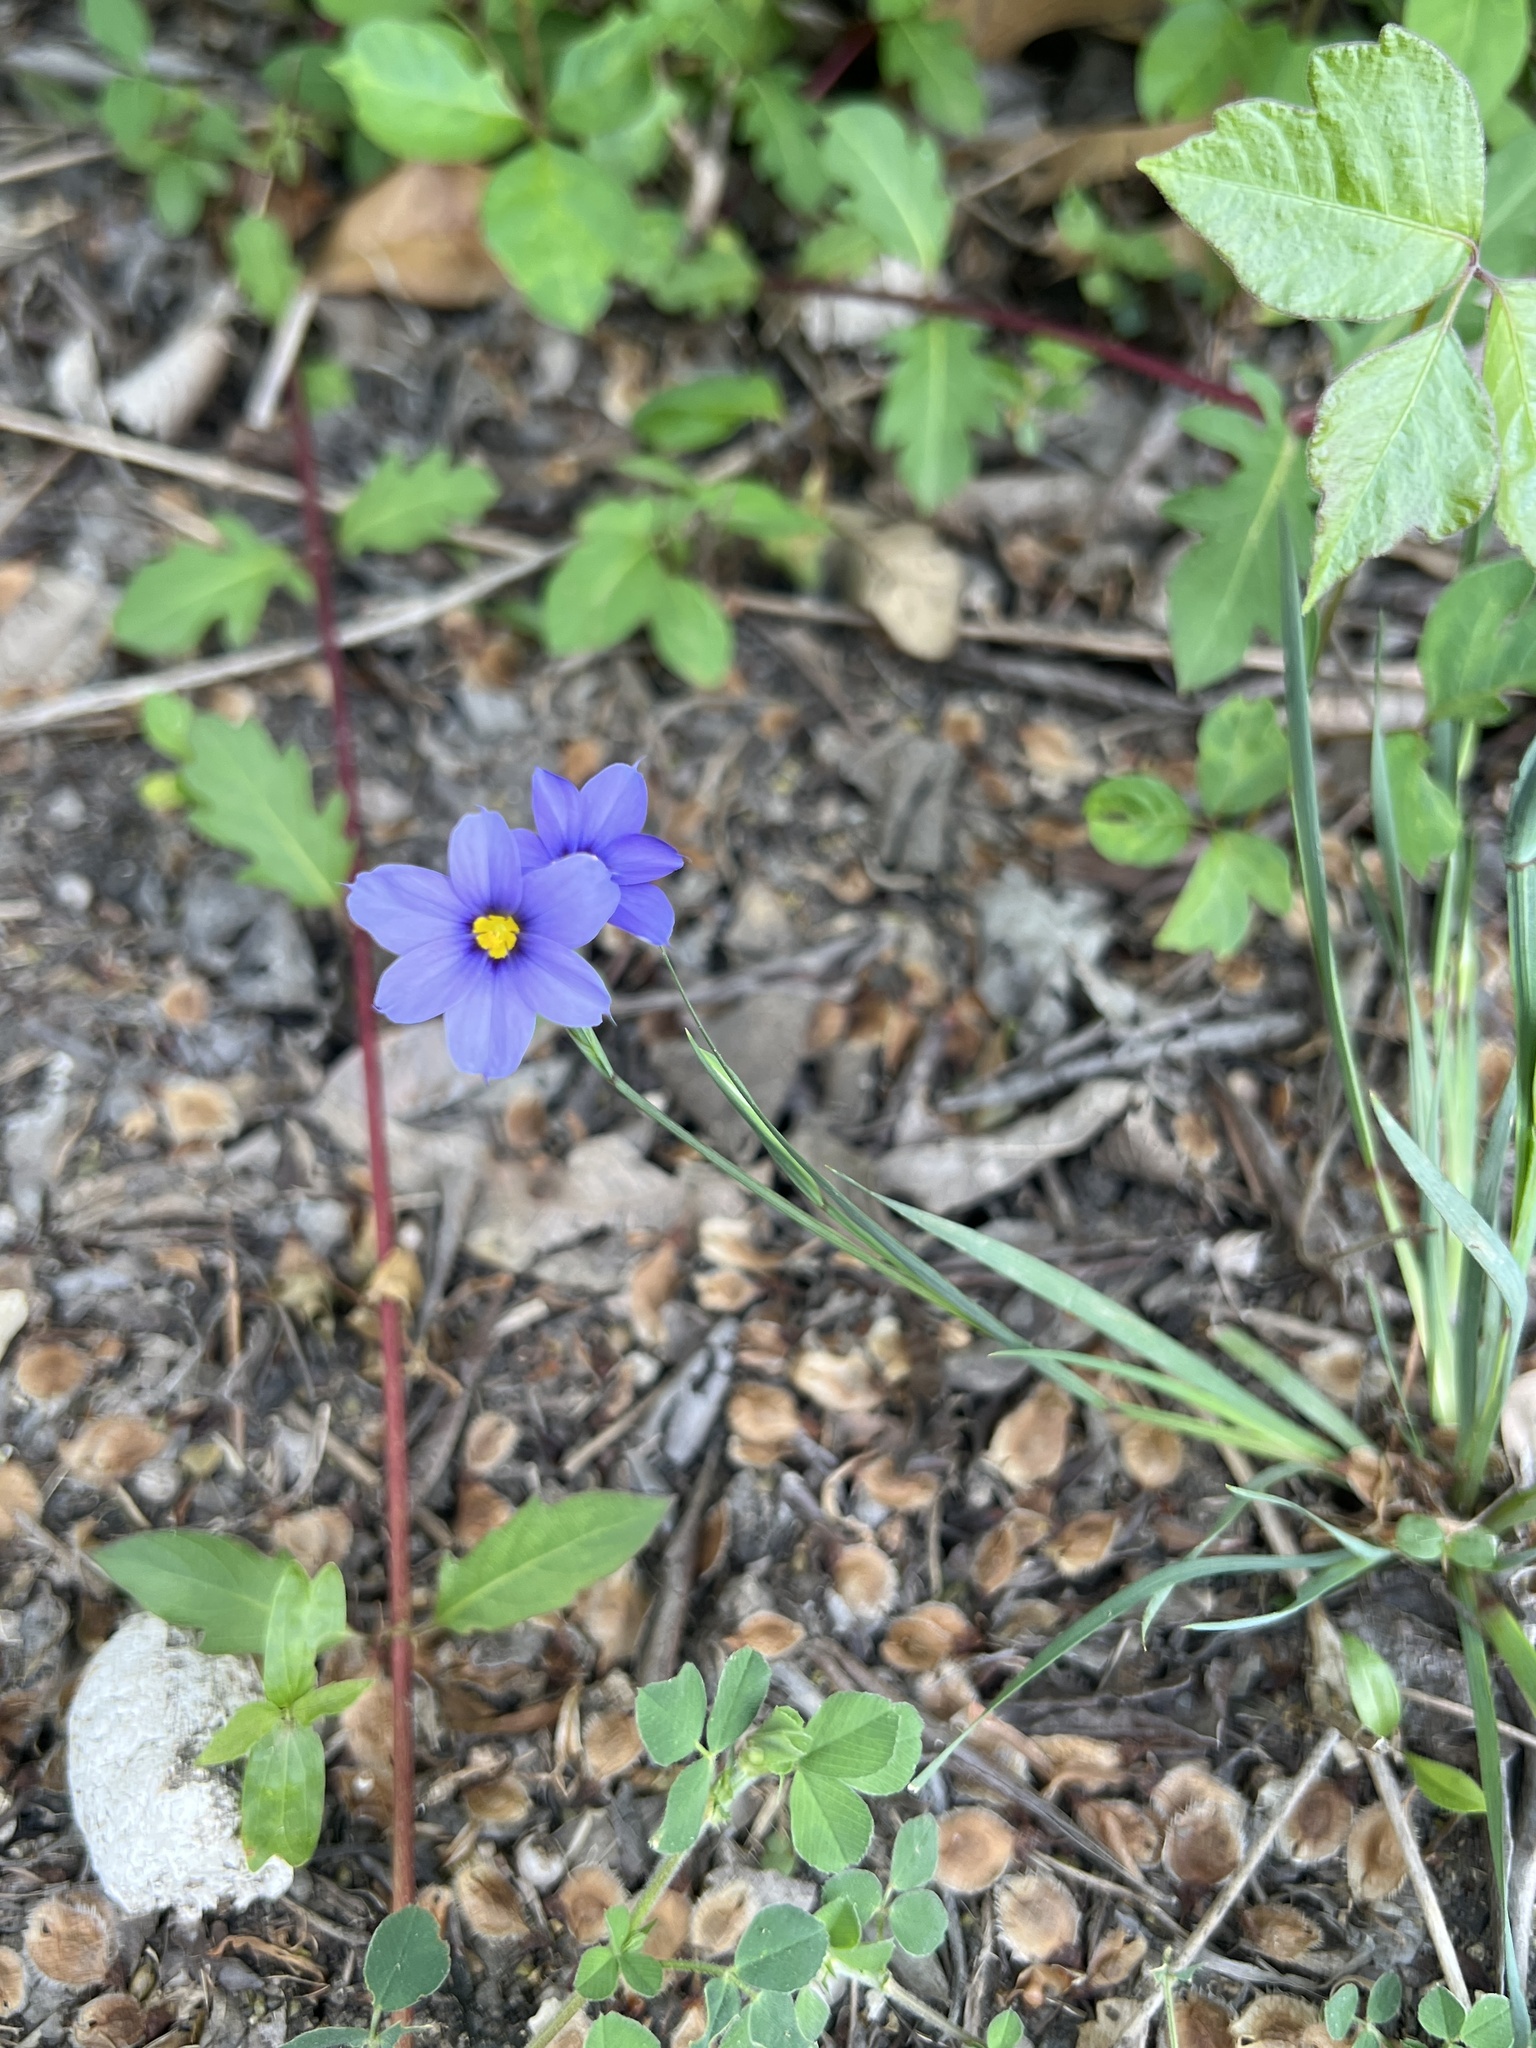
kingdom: Plantae
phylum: Tracheophyta
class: Liliopsida
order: Asparagales
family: Iridaceae
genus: Sisyrinchium
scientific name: Sisyrinchium pruinosum
